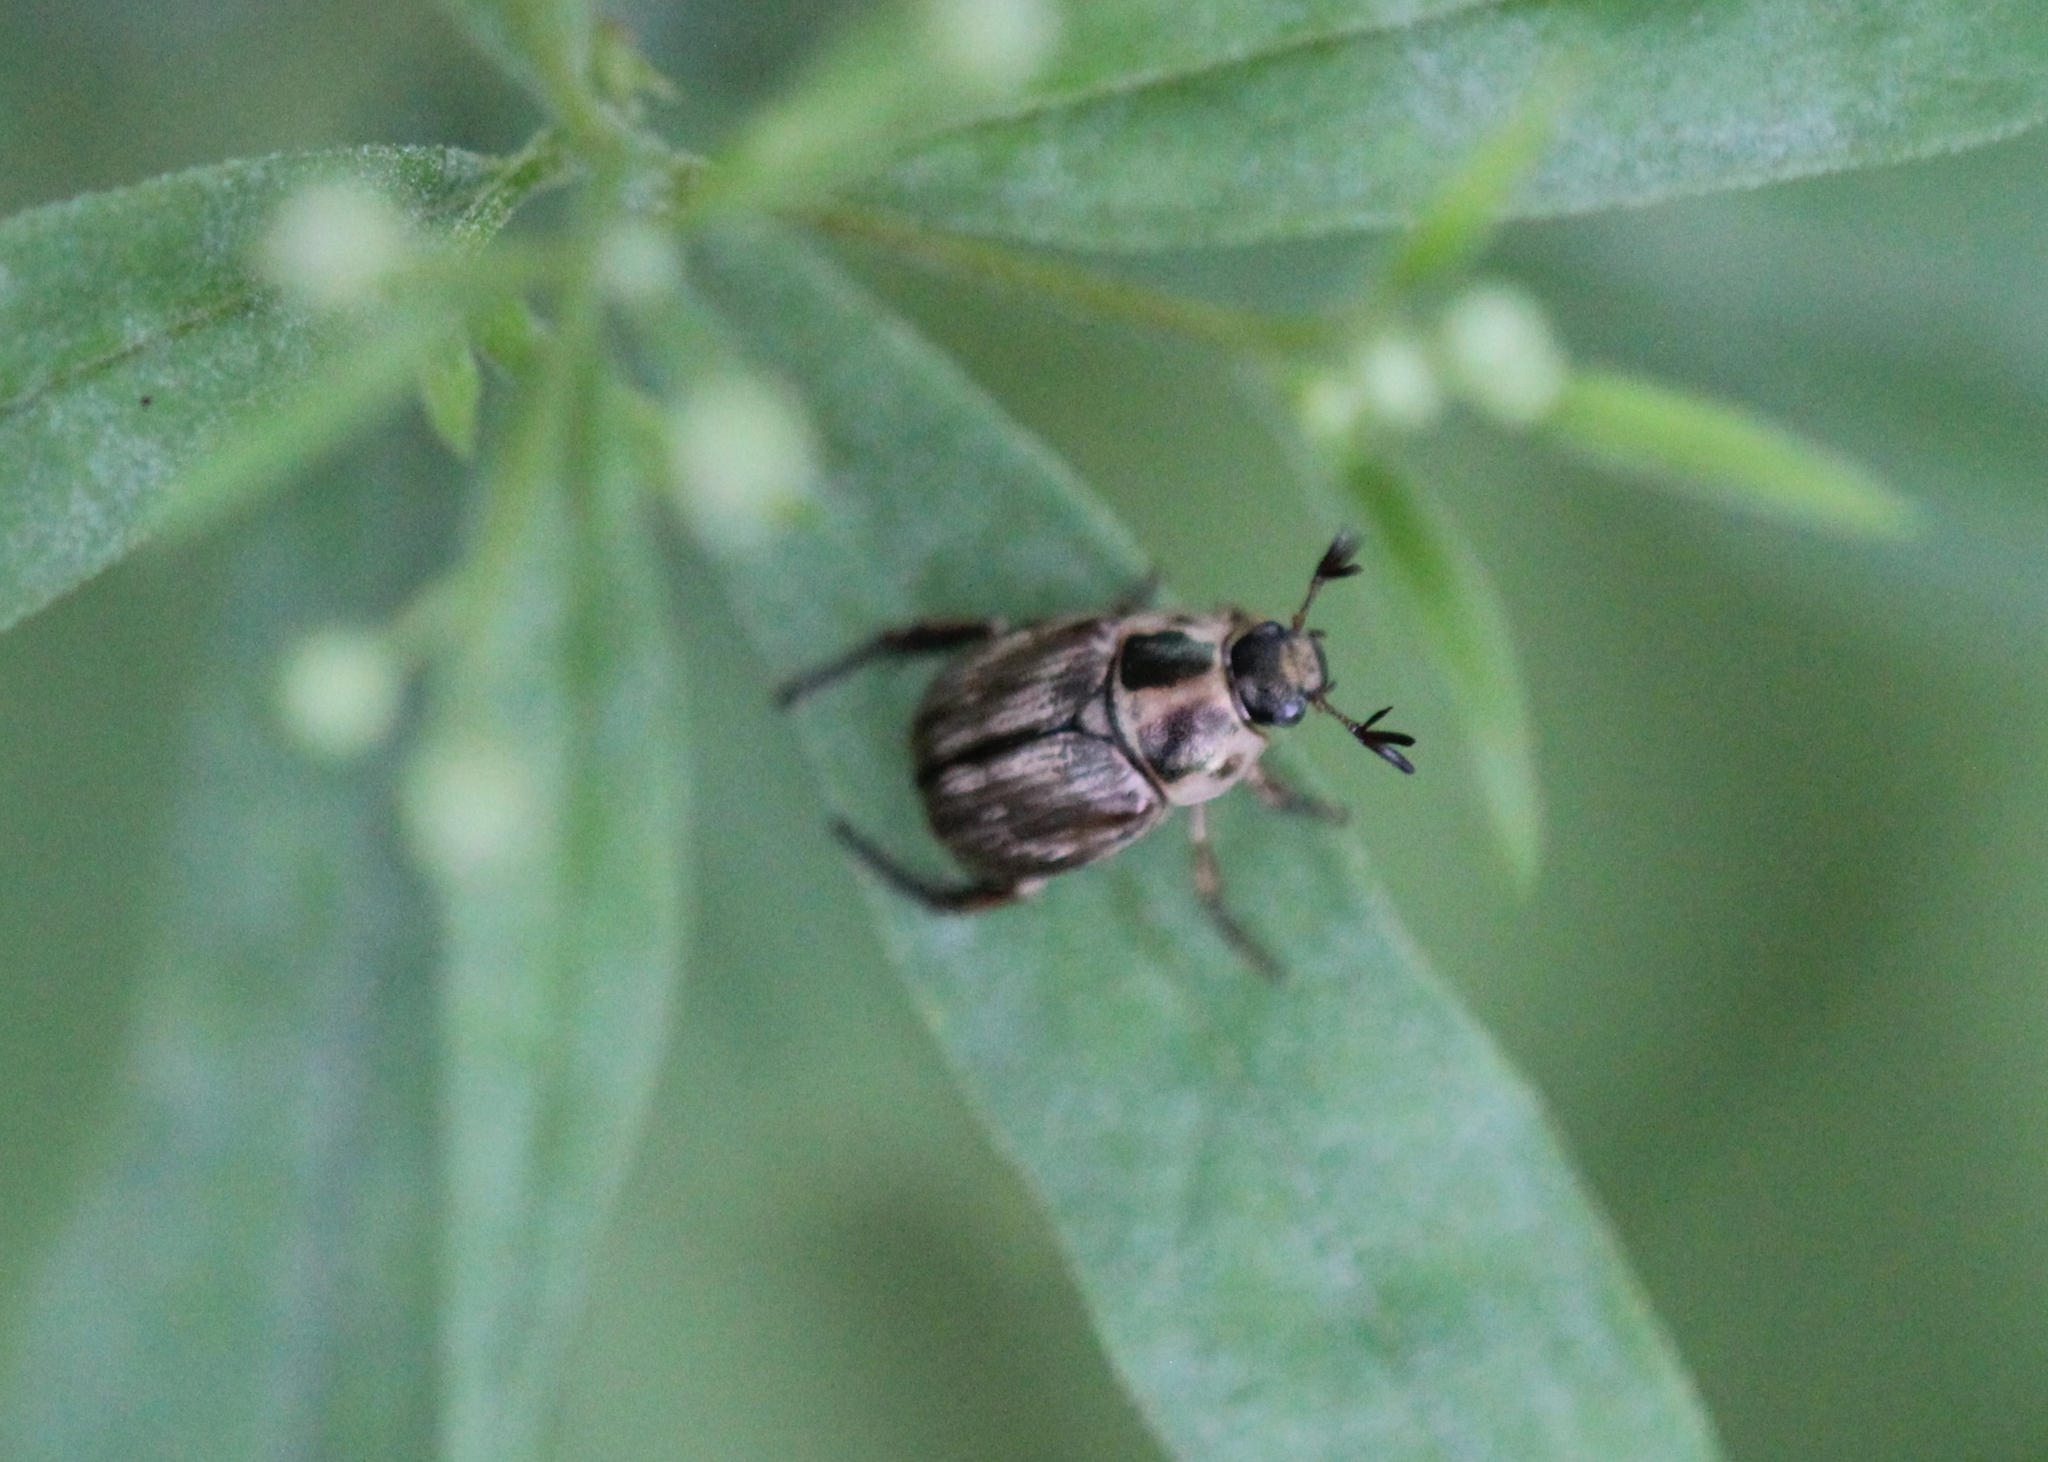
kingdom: Animalia
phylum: Arthropoda
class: Insecta
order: Coleoptera
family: Scarabaeidae
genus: Exomala
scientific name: Exomala orientalis
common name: Oriental beetle
